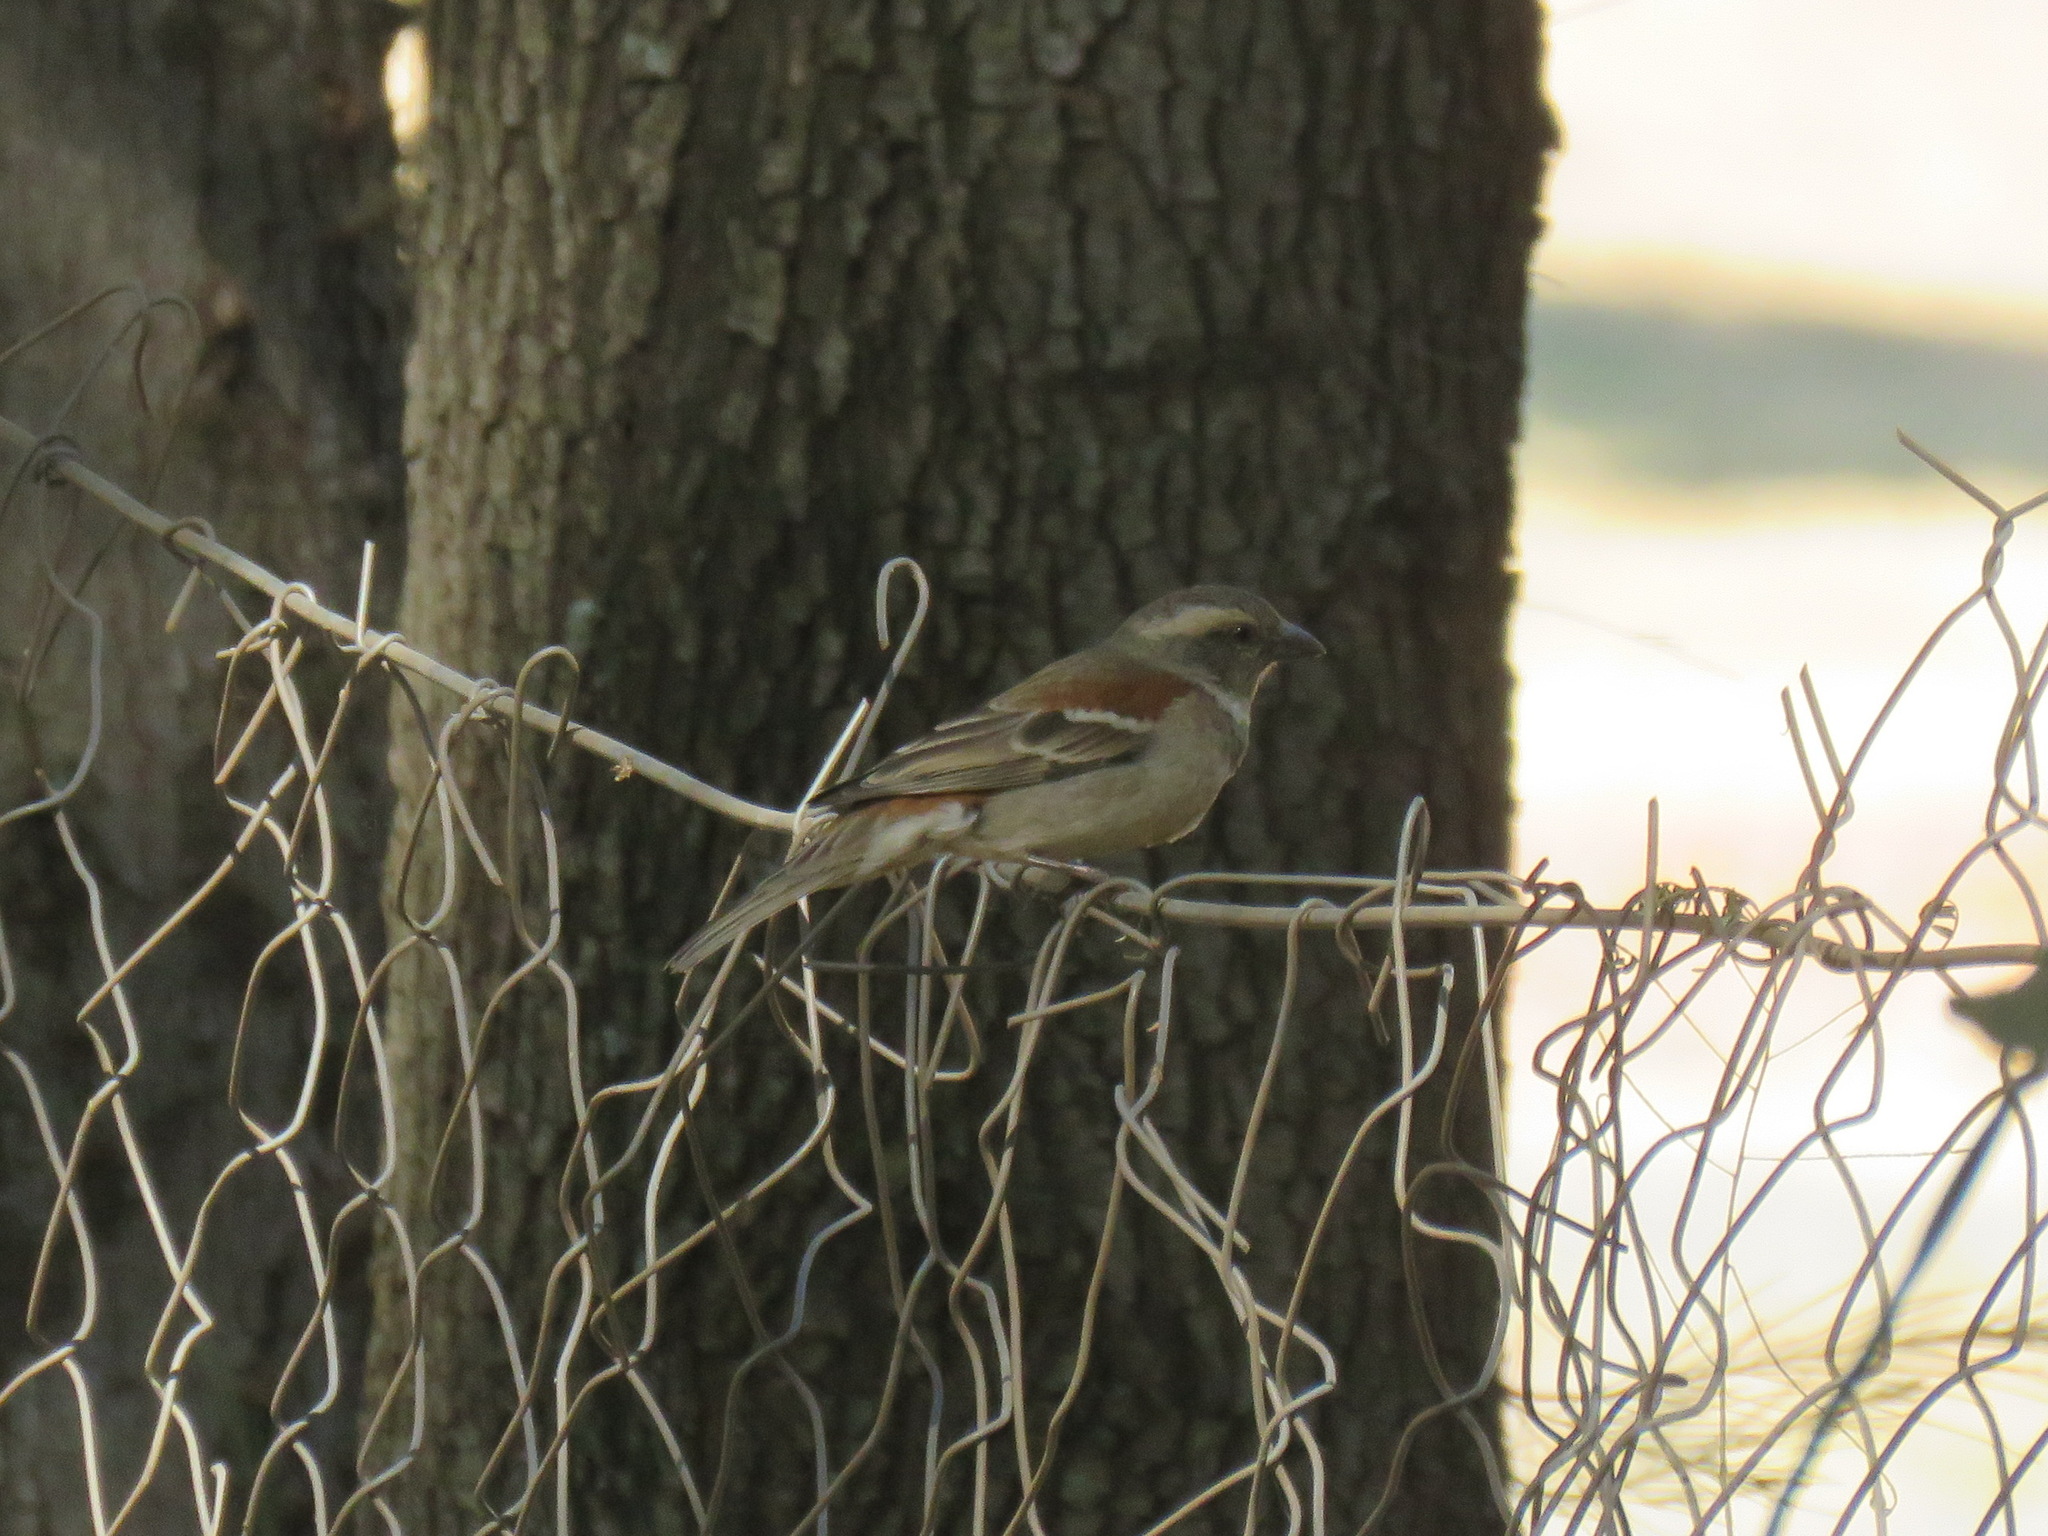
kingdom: Animalia
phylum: Chordata
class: Aves
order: Passeriformes
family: Passeridae
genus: Passer
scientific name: Passer melanurus
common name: Cape sparrow
